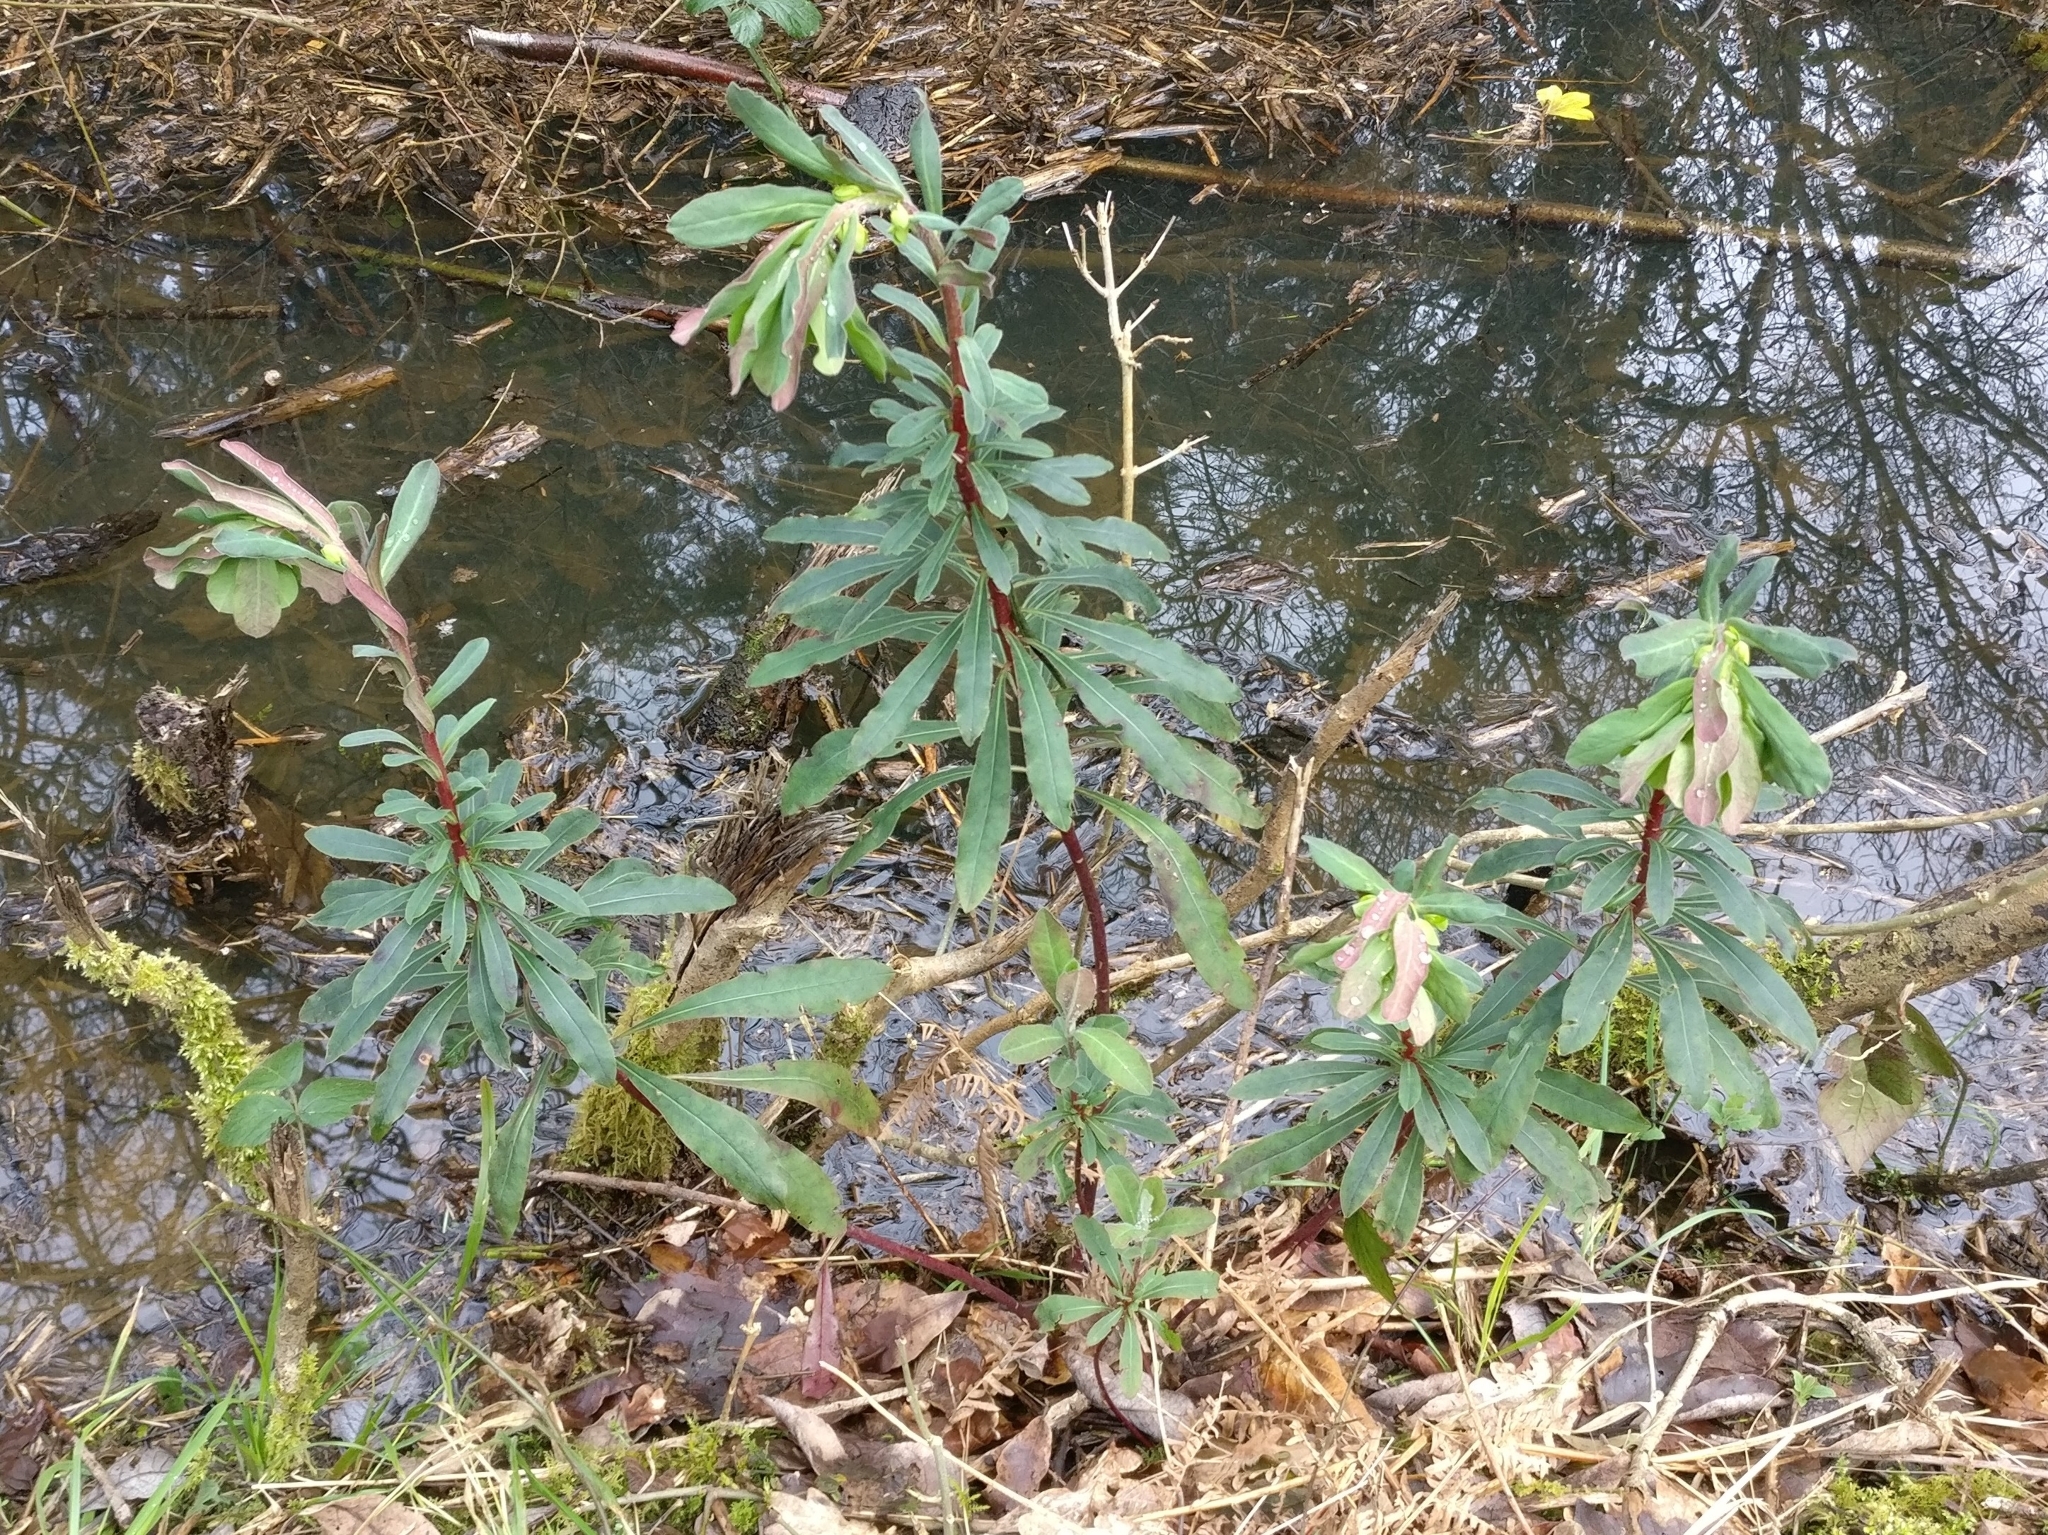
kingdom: Plantae
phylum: Tracheophyta
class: Magnoliopsida
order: Malpighiales
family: Euphorbiaceae
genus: Euphorbia
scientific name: Euphorbia amygdaloides
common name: Wood spurge
